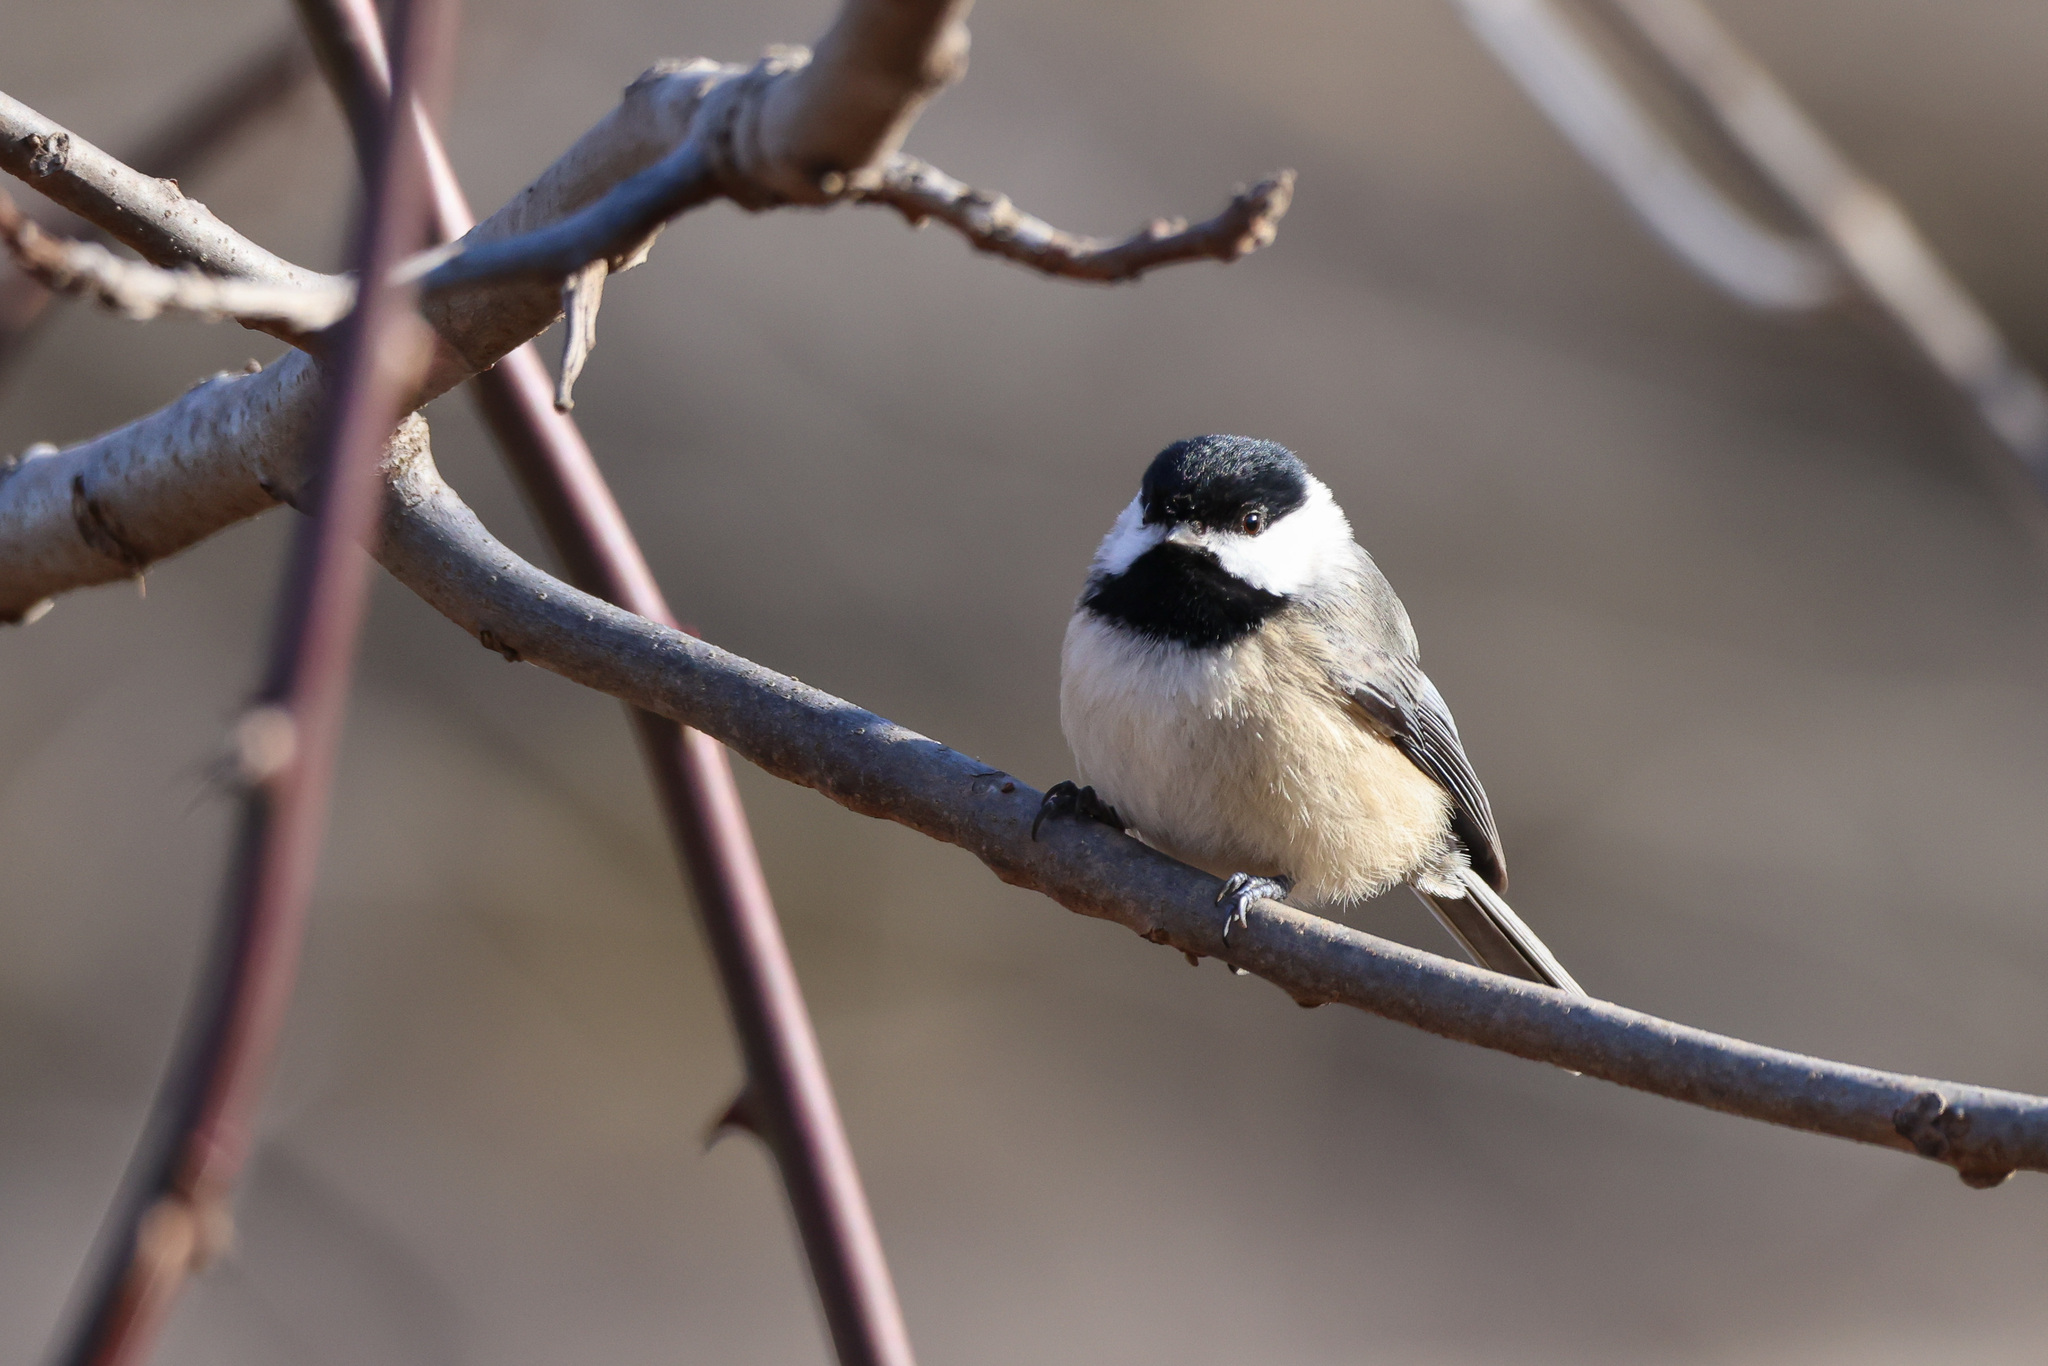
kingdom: Animalia
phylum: Chordata
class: Aves
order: Passeriformes
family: Paridae
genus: Poecile
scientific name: Poecile carolinensis
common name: Carolina chickadee
